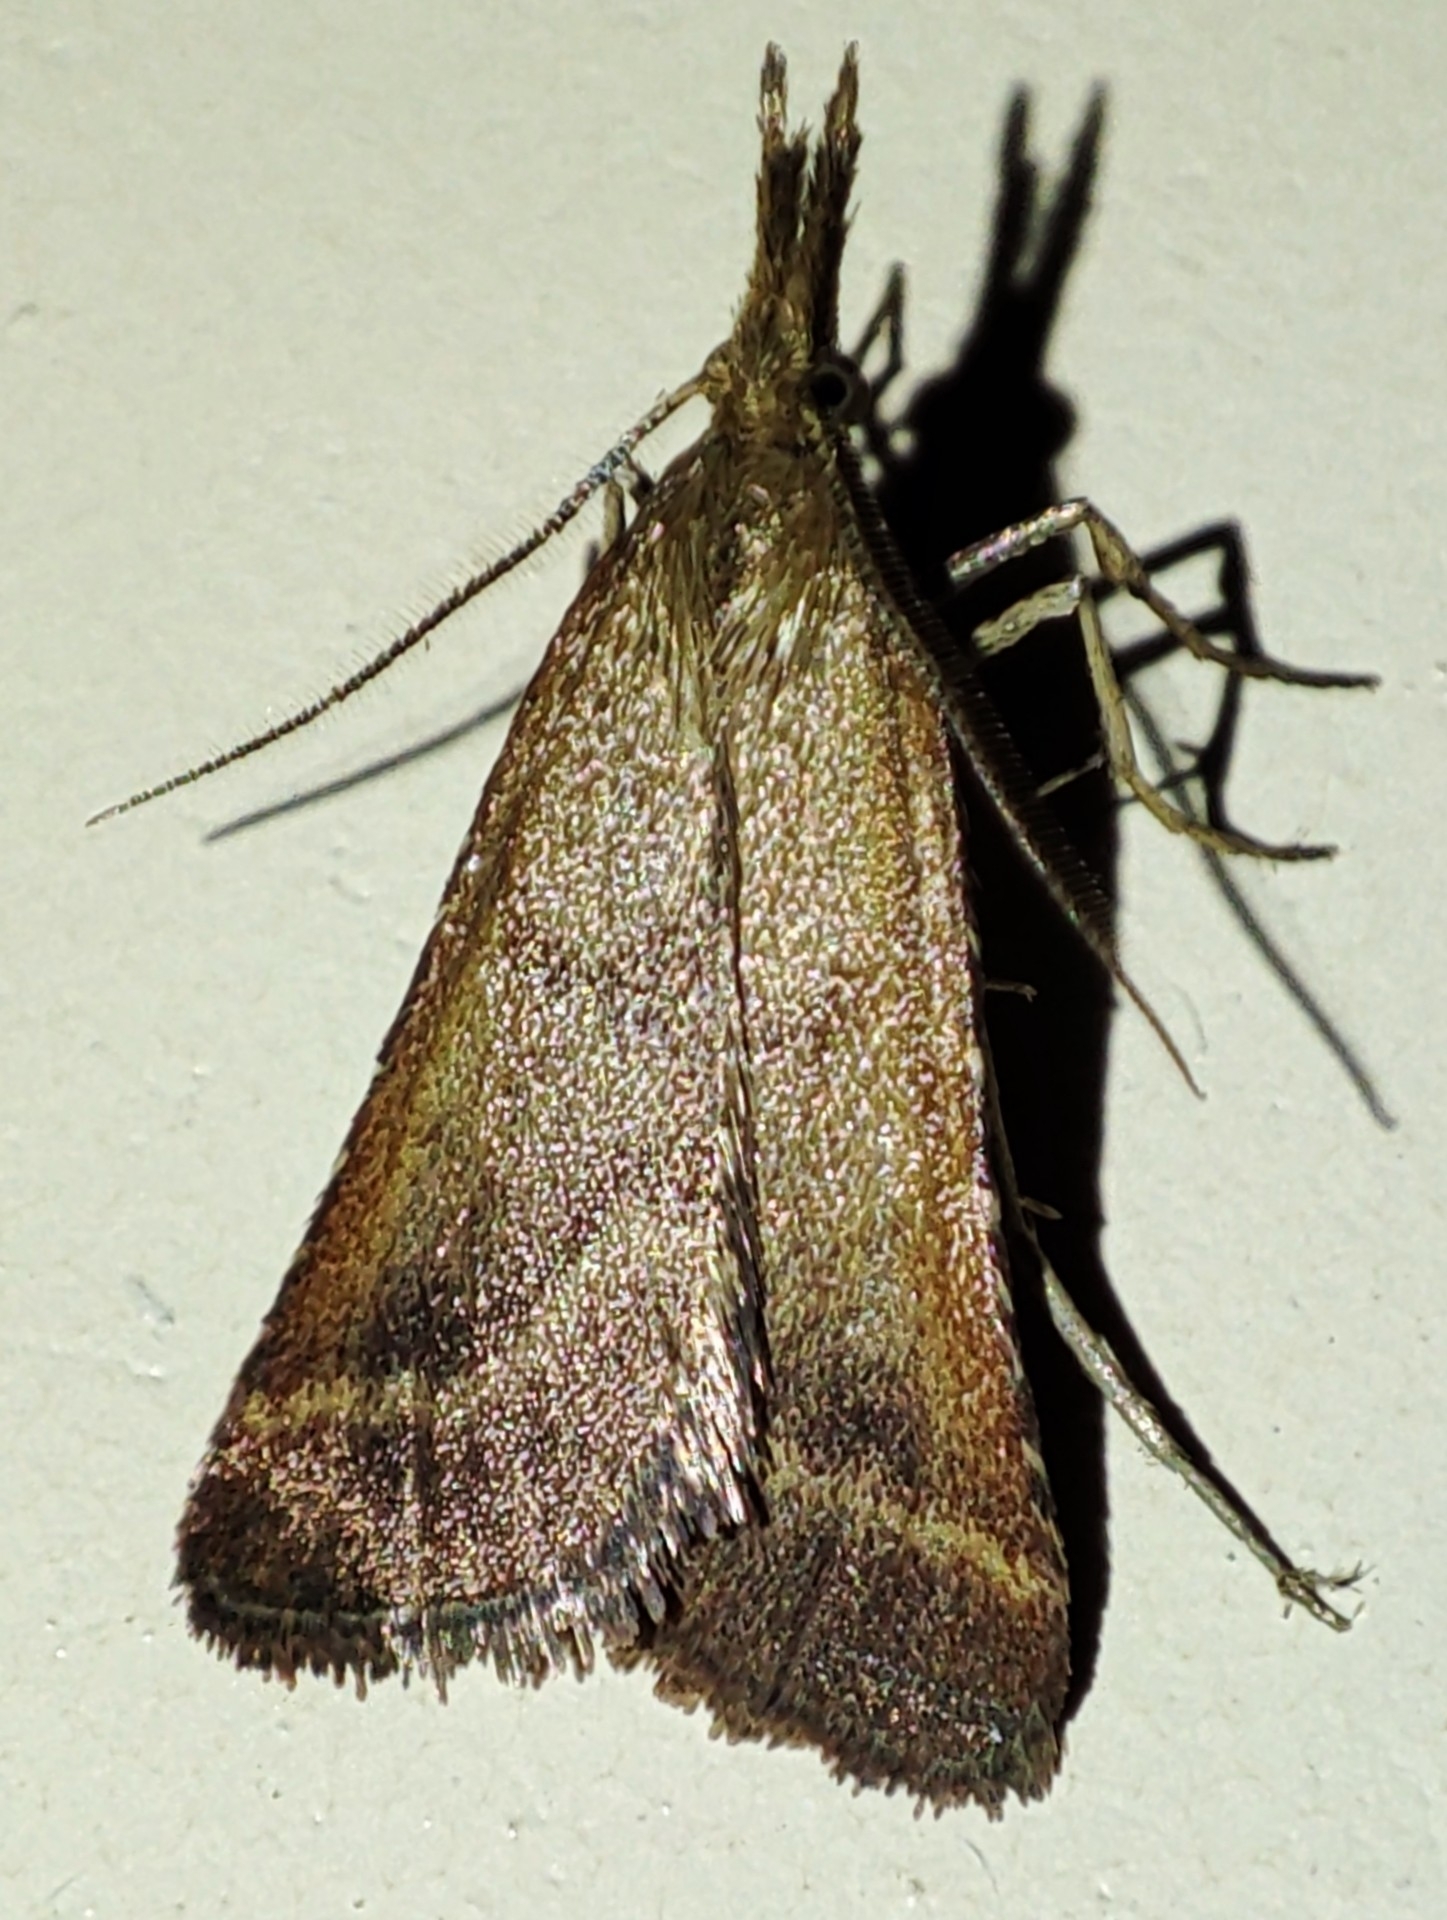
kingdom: Animalia
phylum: Arthropoda
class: Insecta
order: Lepidoptera
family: Pyralidae
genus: Synaphe
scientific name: Synaphe punctalis
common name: Long-legged tabby
